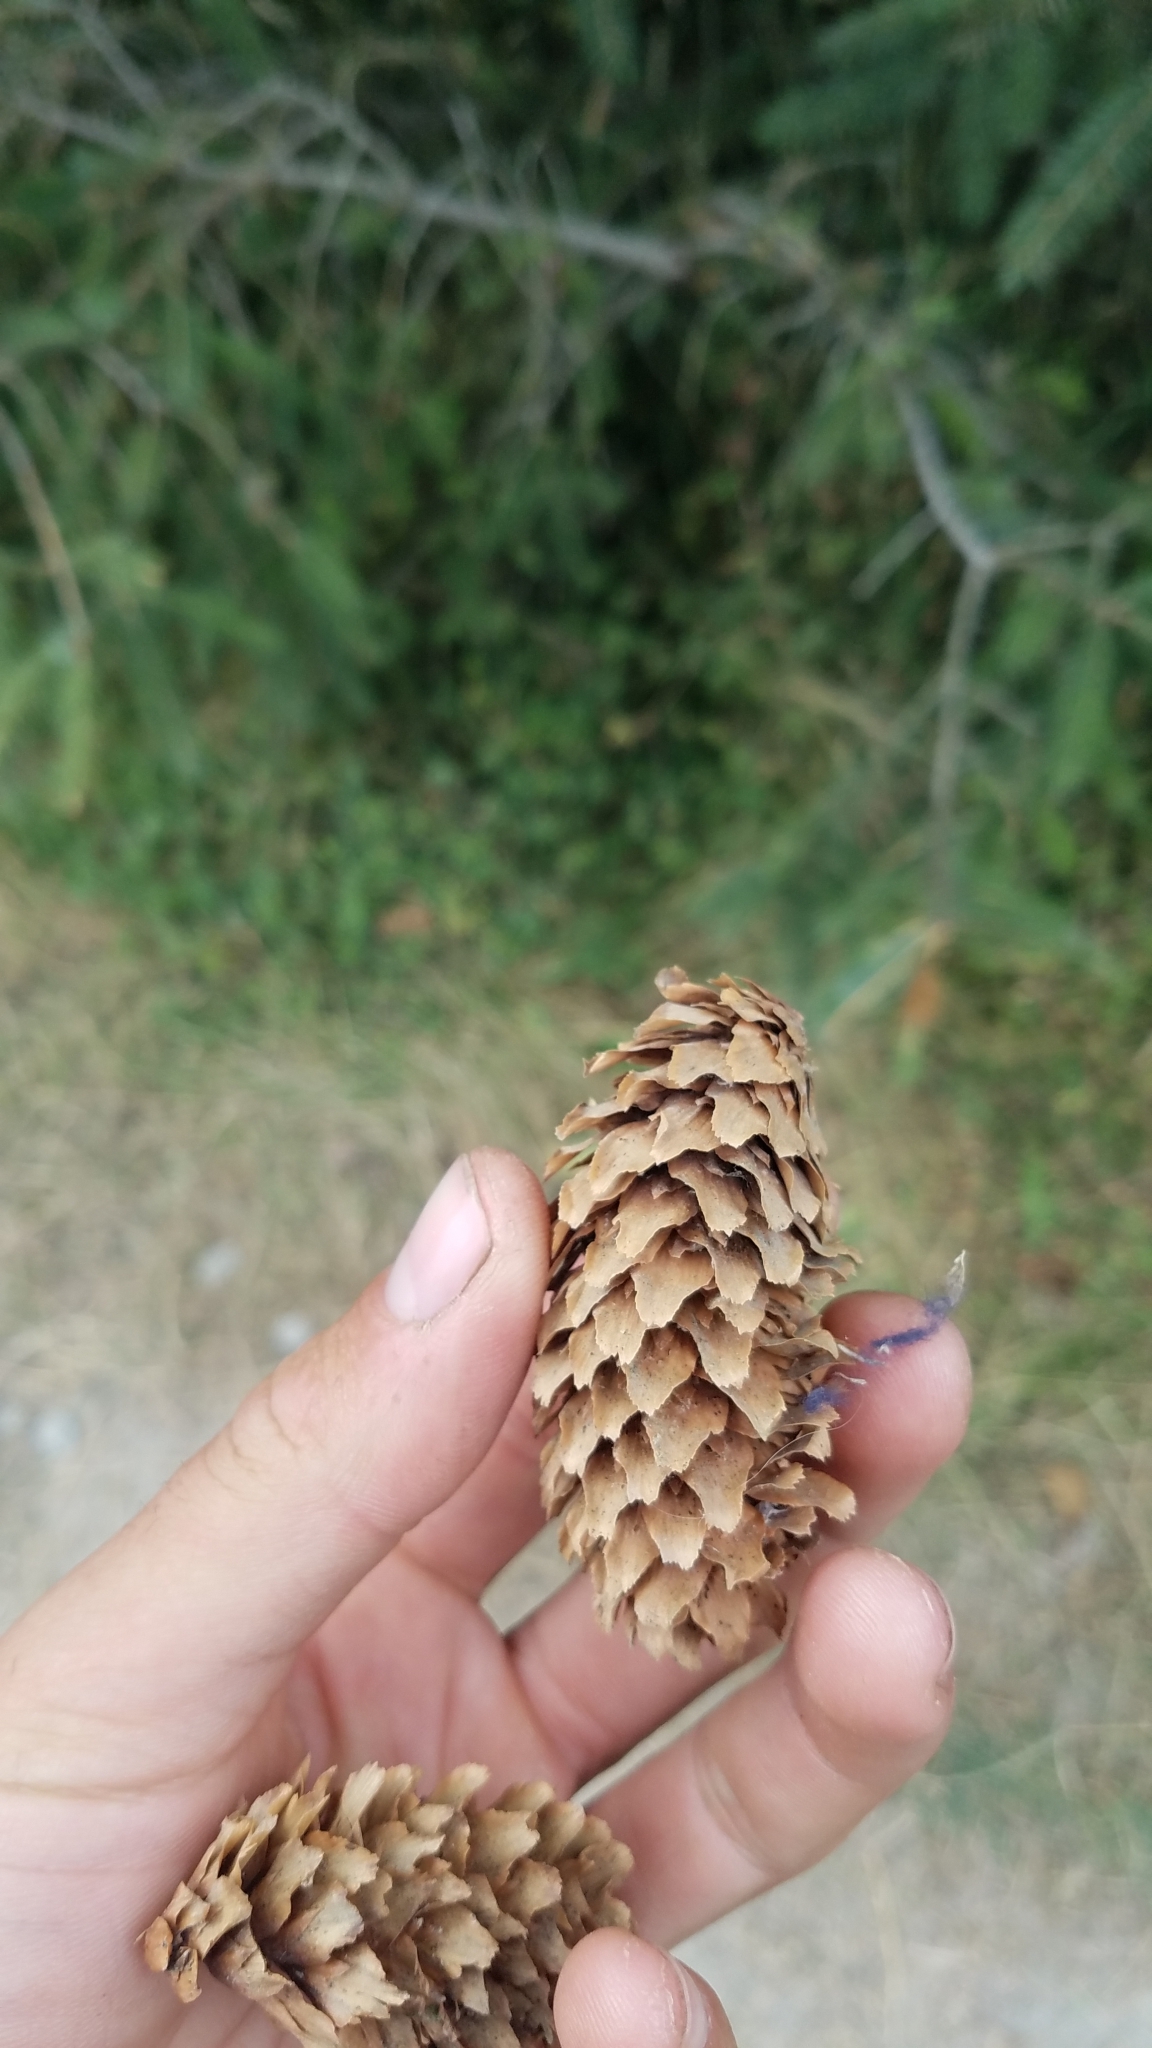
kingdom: Plantae
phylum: Tracheophyta
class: Pinopsida
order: Pinales
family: Pinaceae
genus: Picea
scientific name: Picea sitchensis
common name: Sitka spruce
